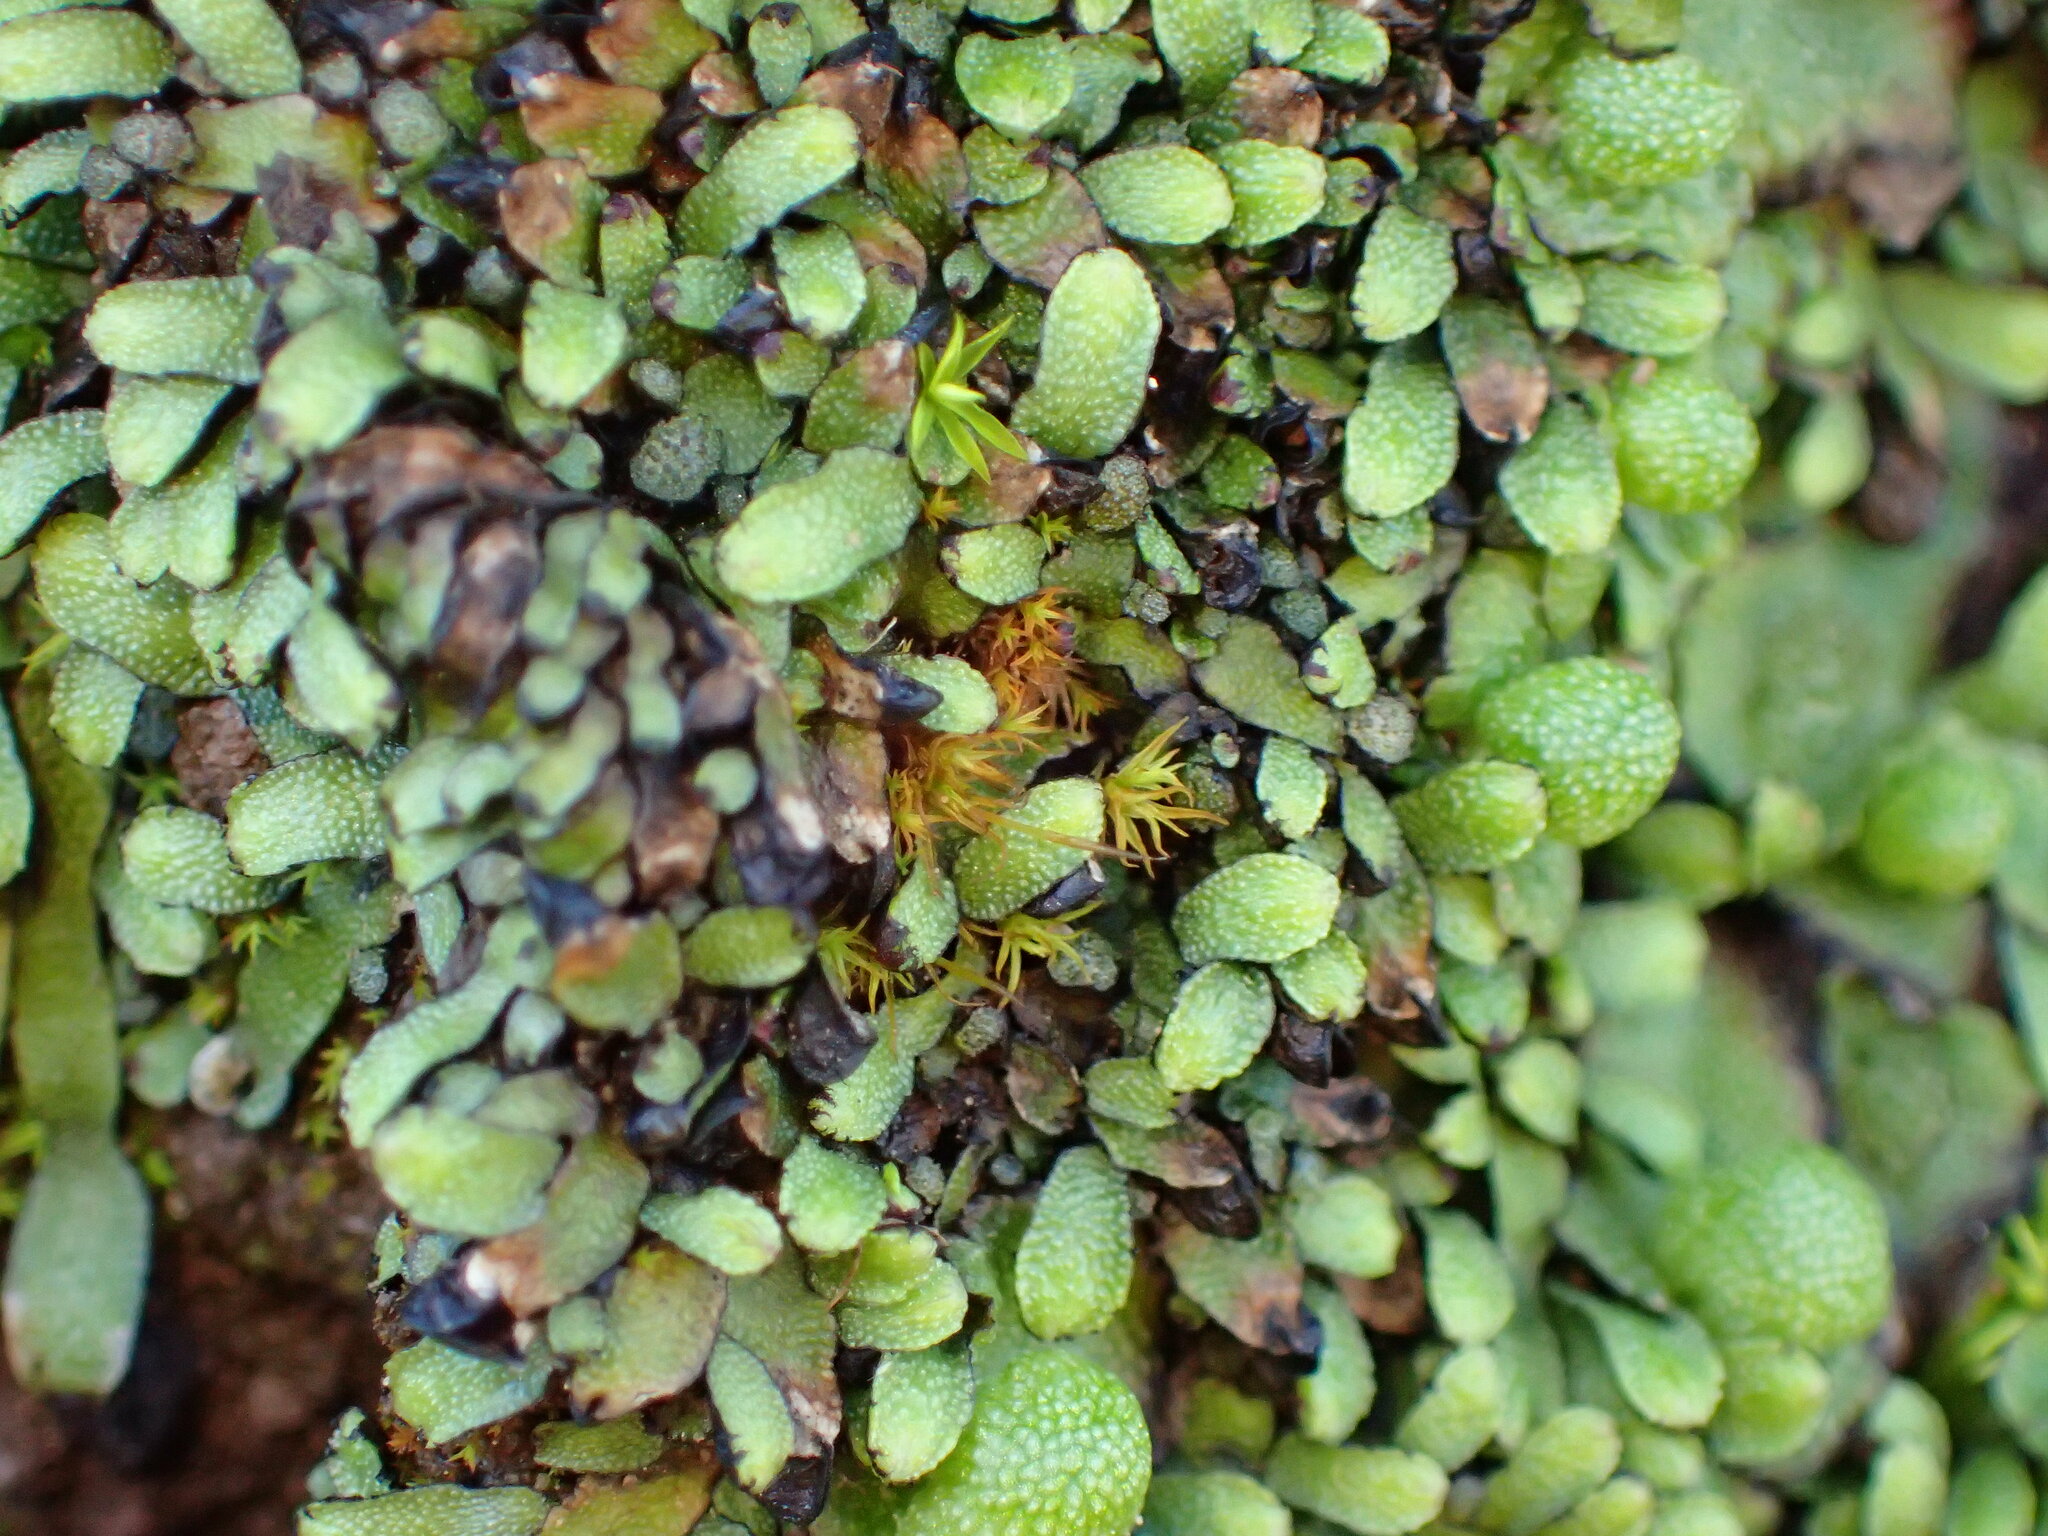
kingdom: Plantae
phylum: Marchantiophyta
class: Marchantiopsida
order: Marchantiales
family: Targioniaceae
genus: Targionia
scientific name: Targionia hypophylla
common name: Orobus-seed liverwort
